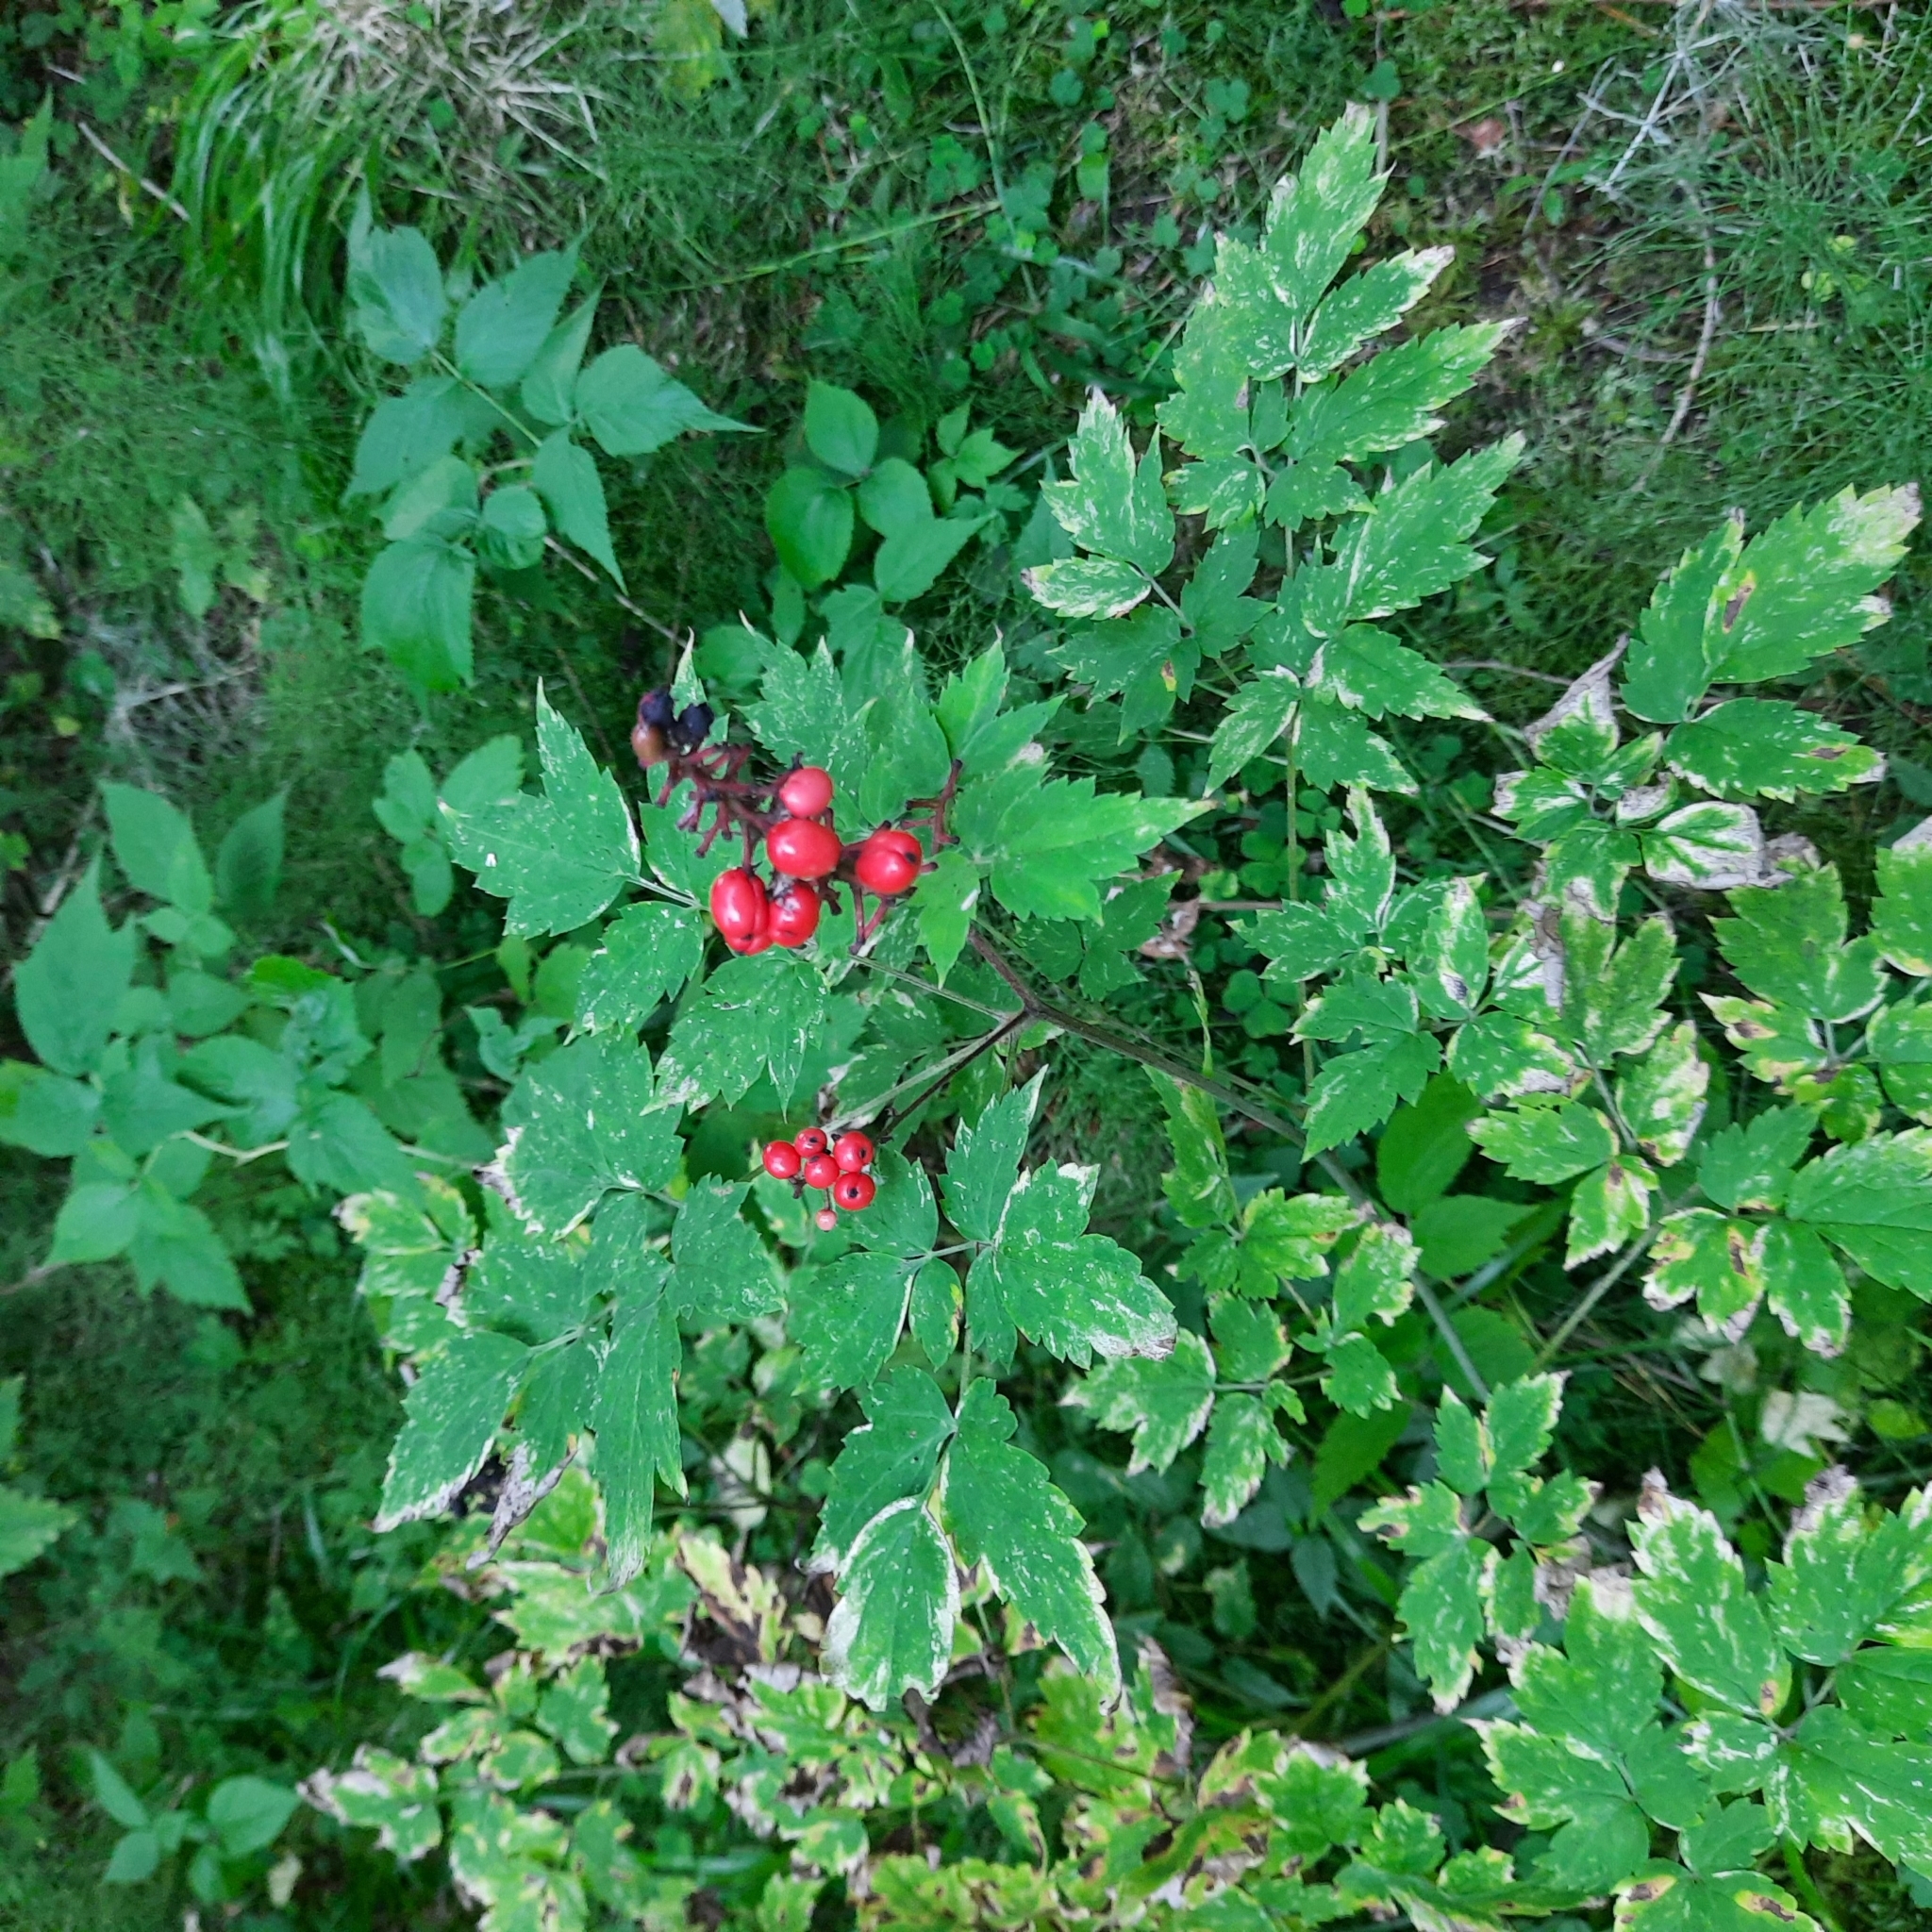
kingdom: Plantae
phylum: Tracheophyta
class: Magnoliopsida
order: Ranunculales
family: Ranunculaceae
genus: Actaea
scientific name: Actaea erythrocarpa
